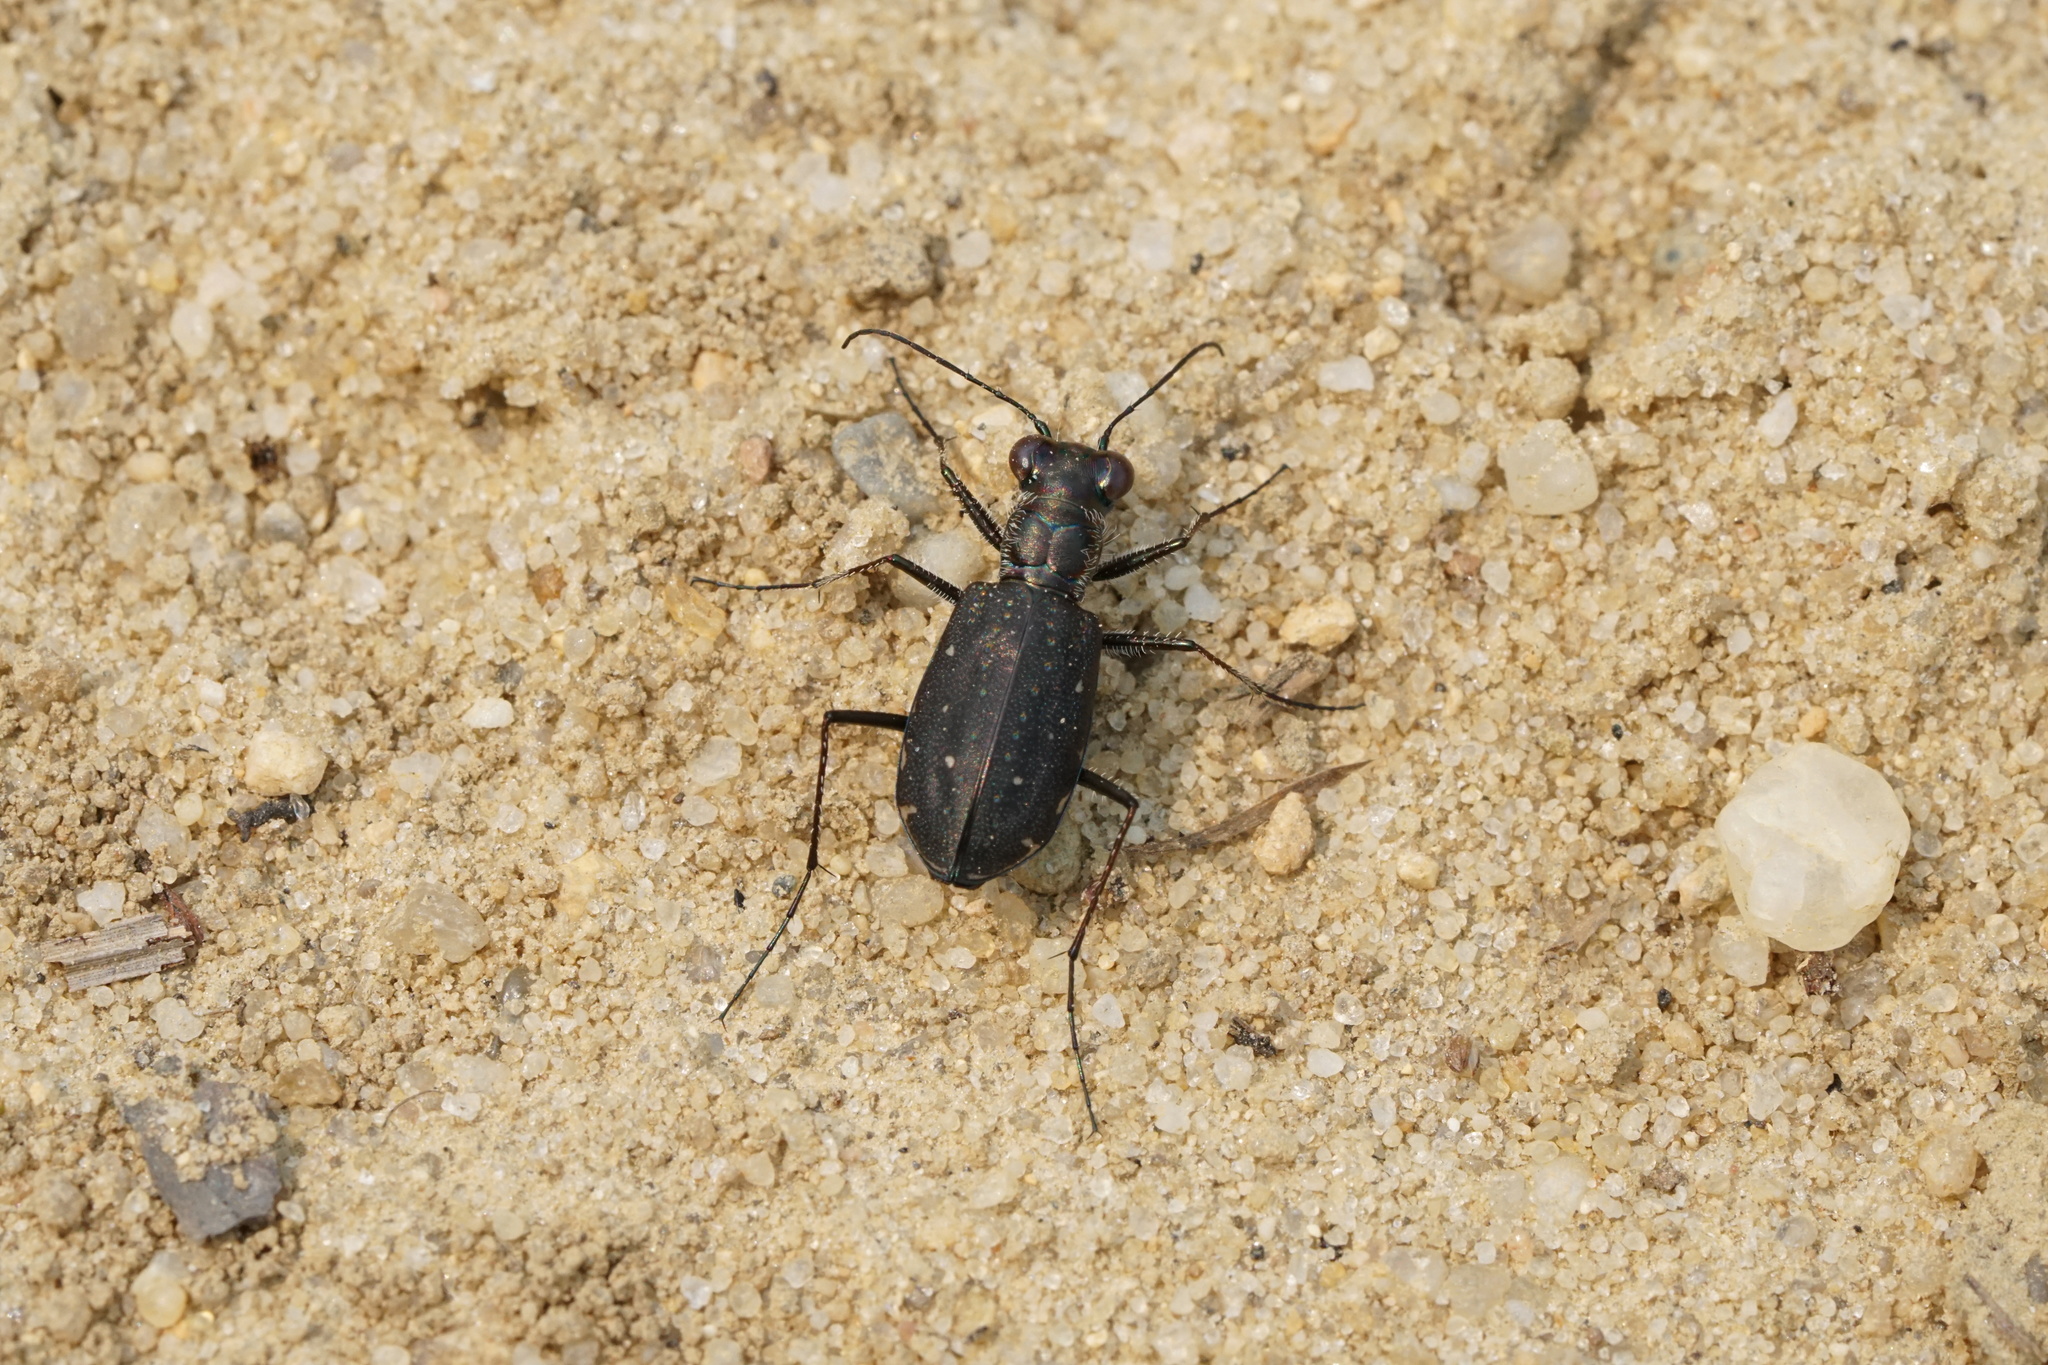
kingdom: Animalia
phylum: Arthropoda
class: Insecta
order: Coleoptera
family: Carabidae
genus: Cicindela
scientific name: Cicindela punctulata
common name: Punctured tiger beetle
